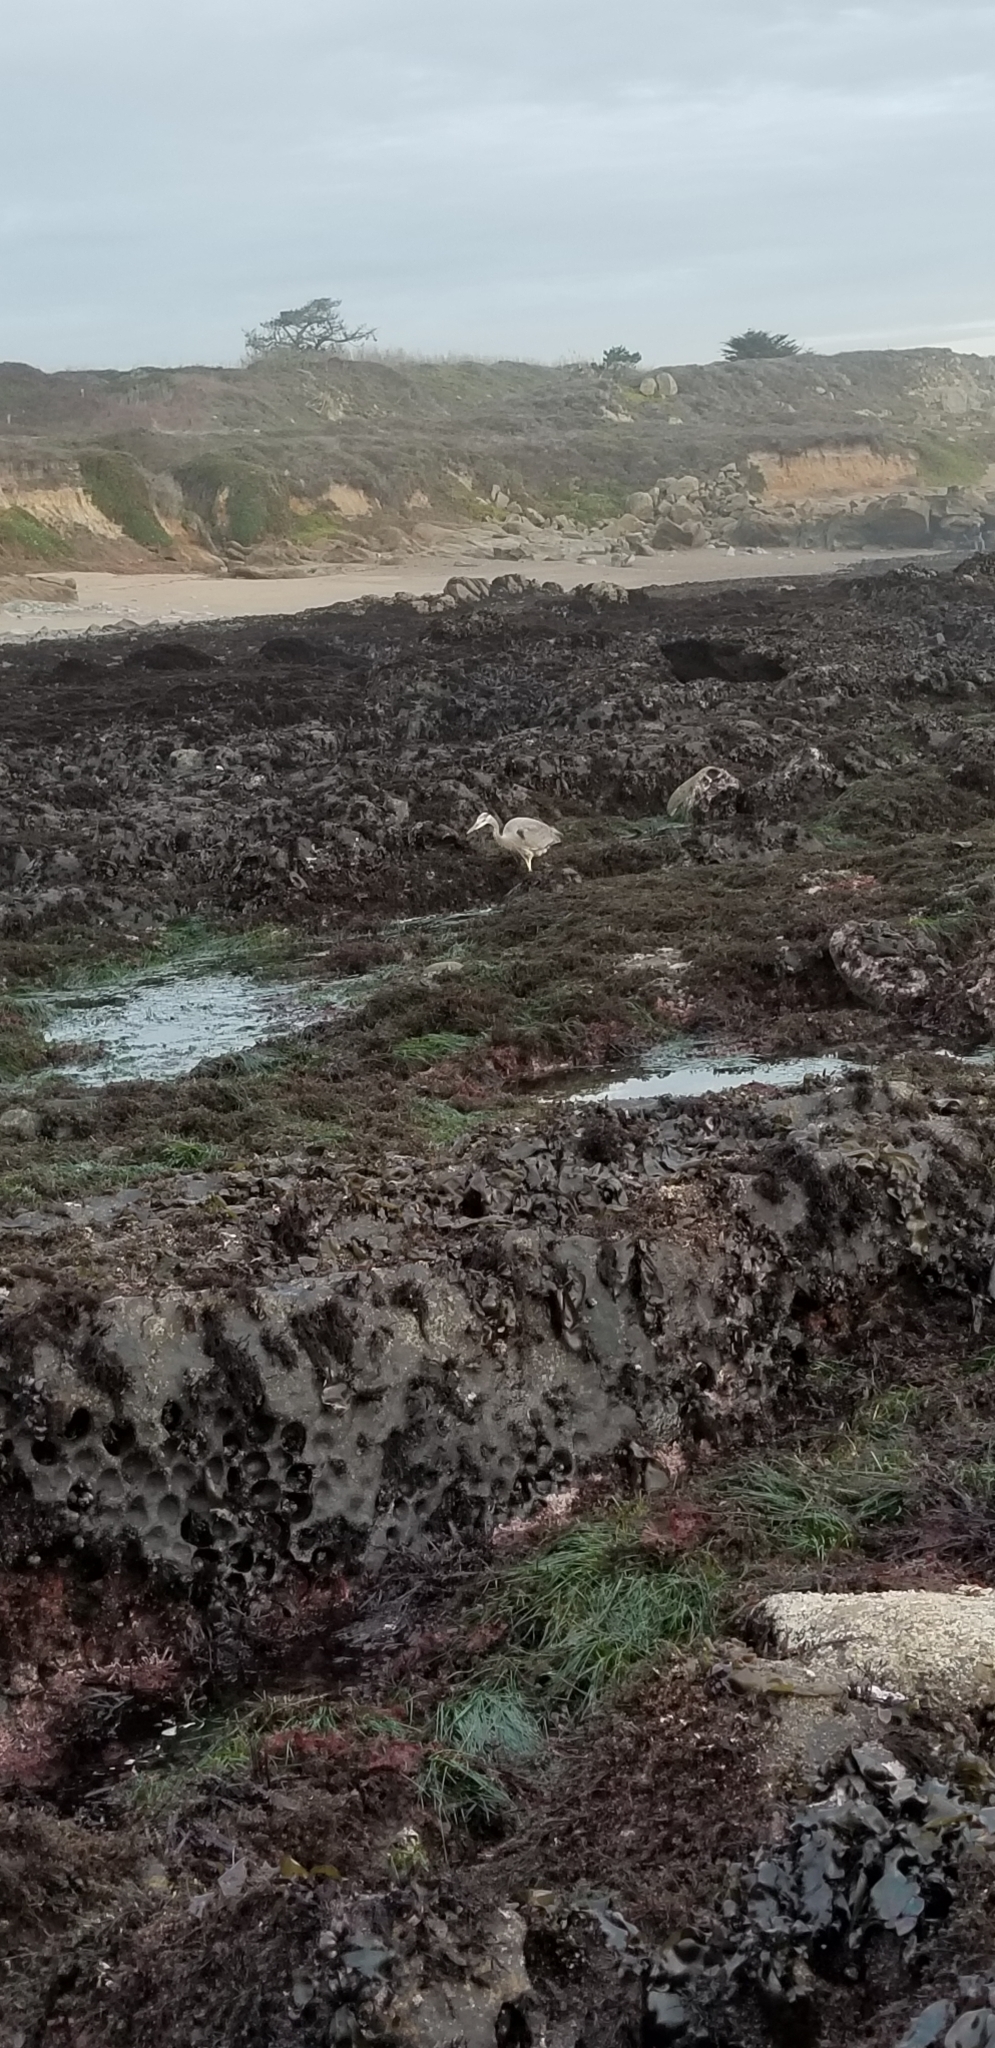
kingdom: Animalia
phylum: Chordata
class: Aves
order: Pelecaniformes
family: Ardeidae
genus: Ardea
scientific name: Ardea herodias
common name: Great blue heron
